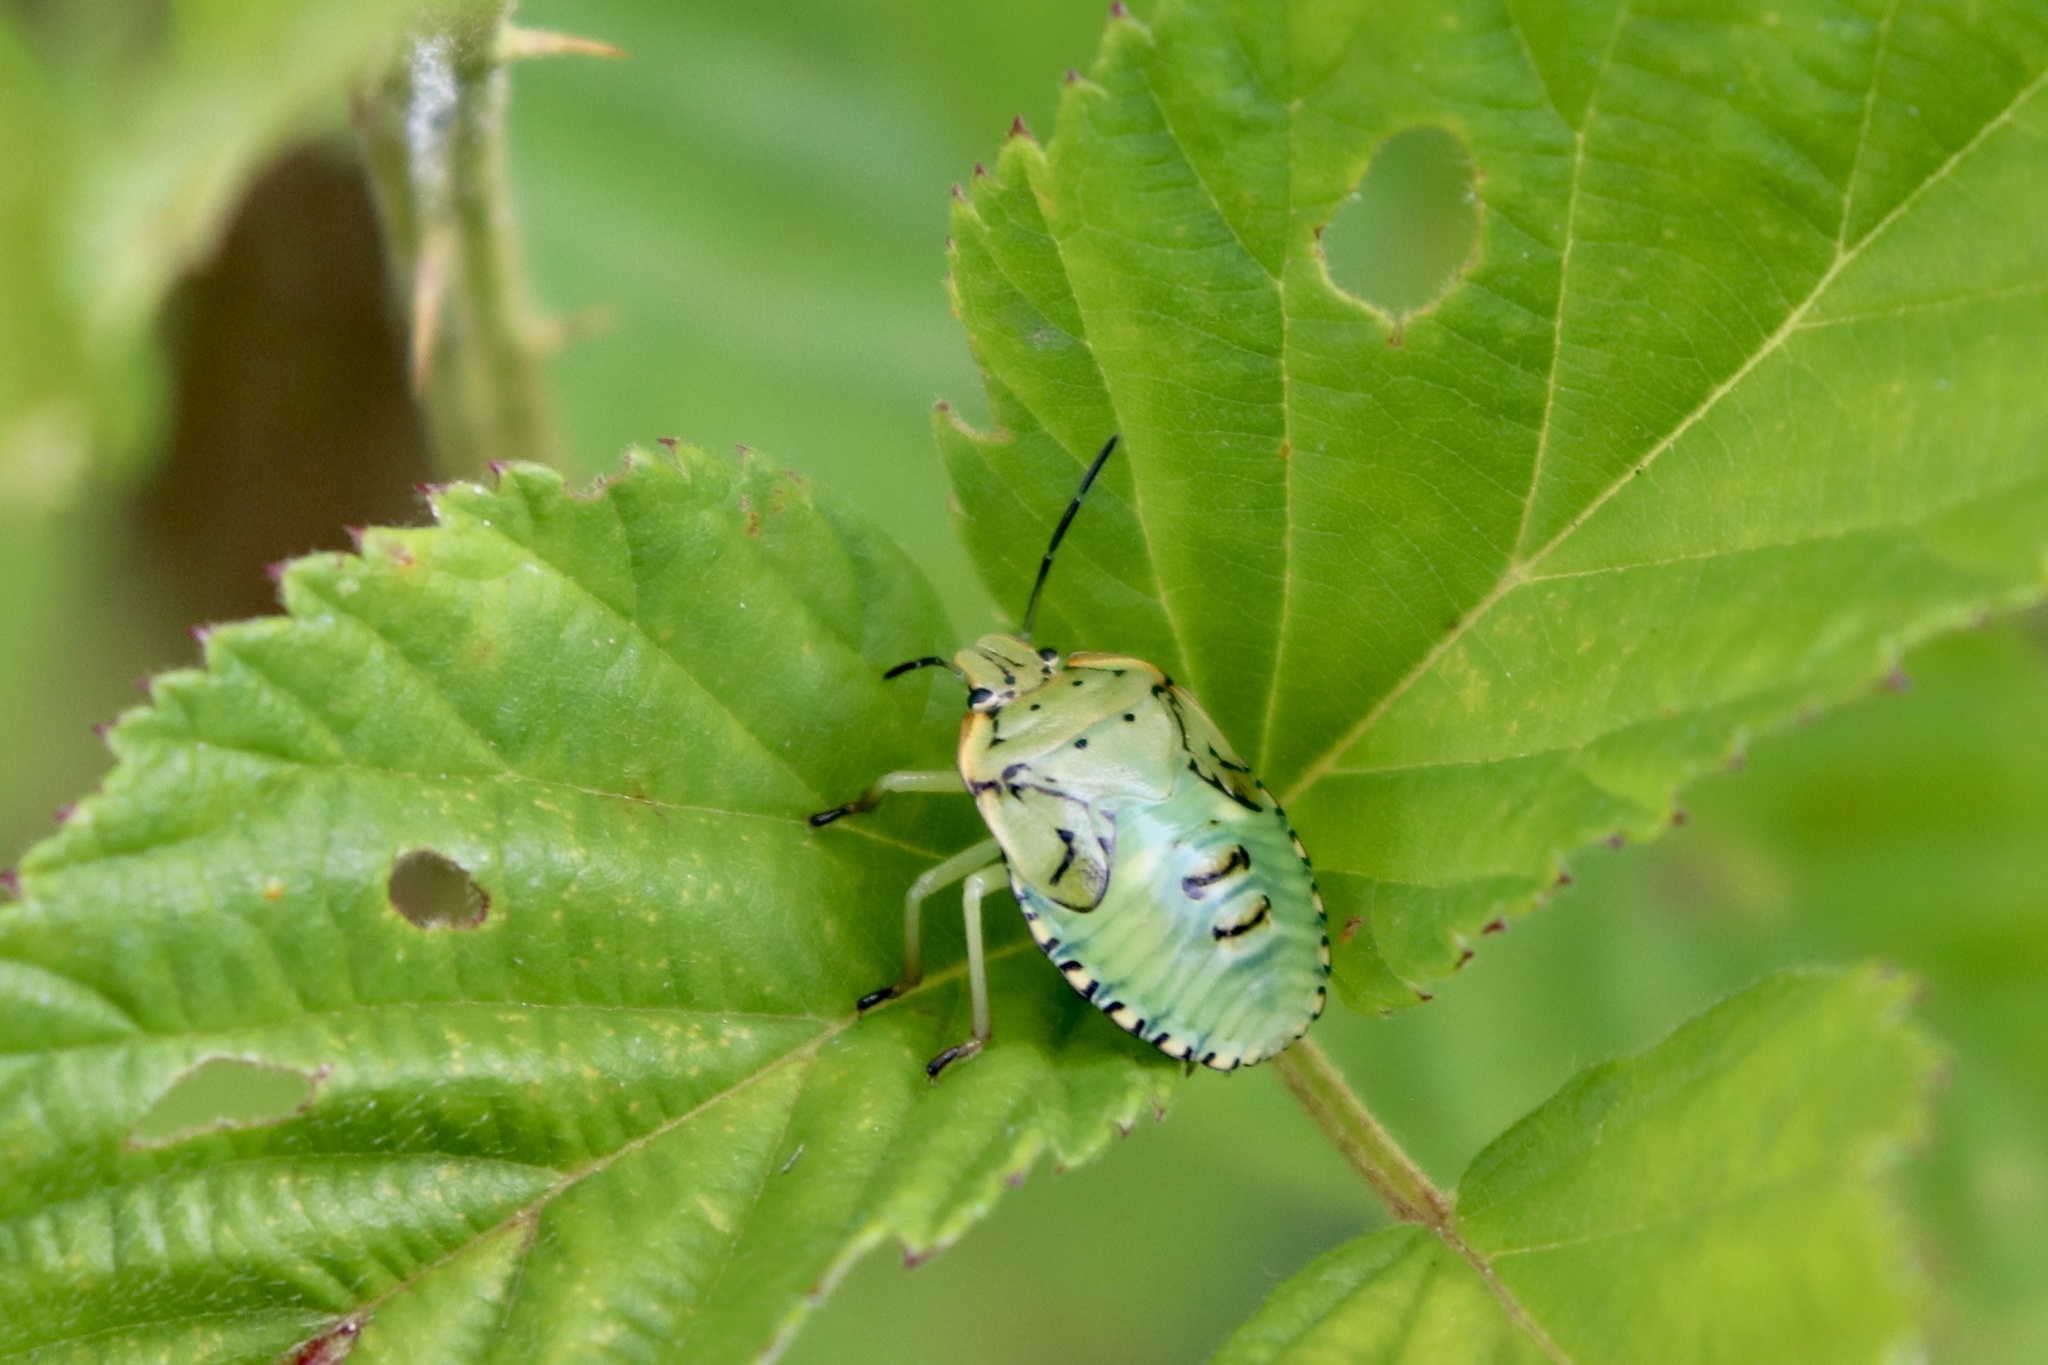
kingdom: Animalia
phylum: Arthropoda
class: Insecta
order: Hemiptera
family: Pentatomidae
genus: Chinavia
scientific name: Chinavia hilaris
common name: Green stink bug
